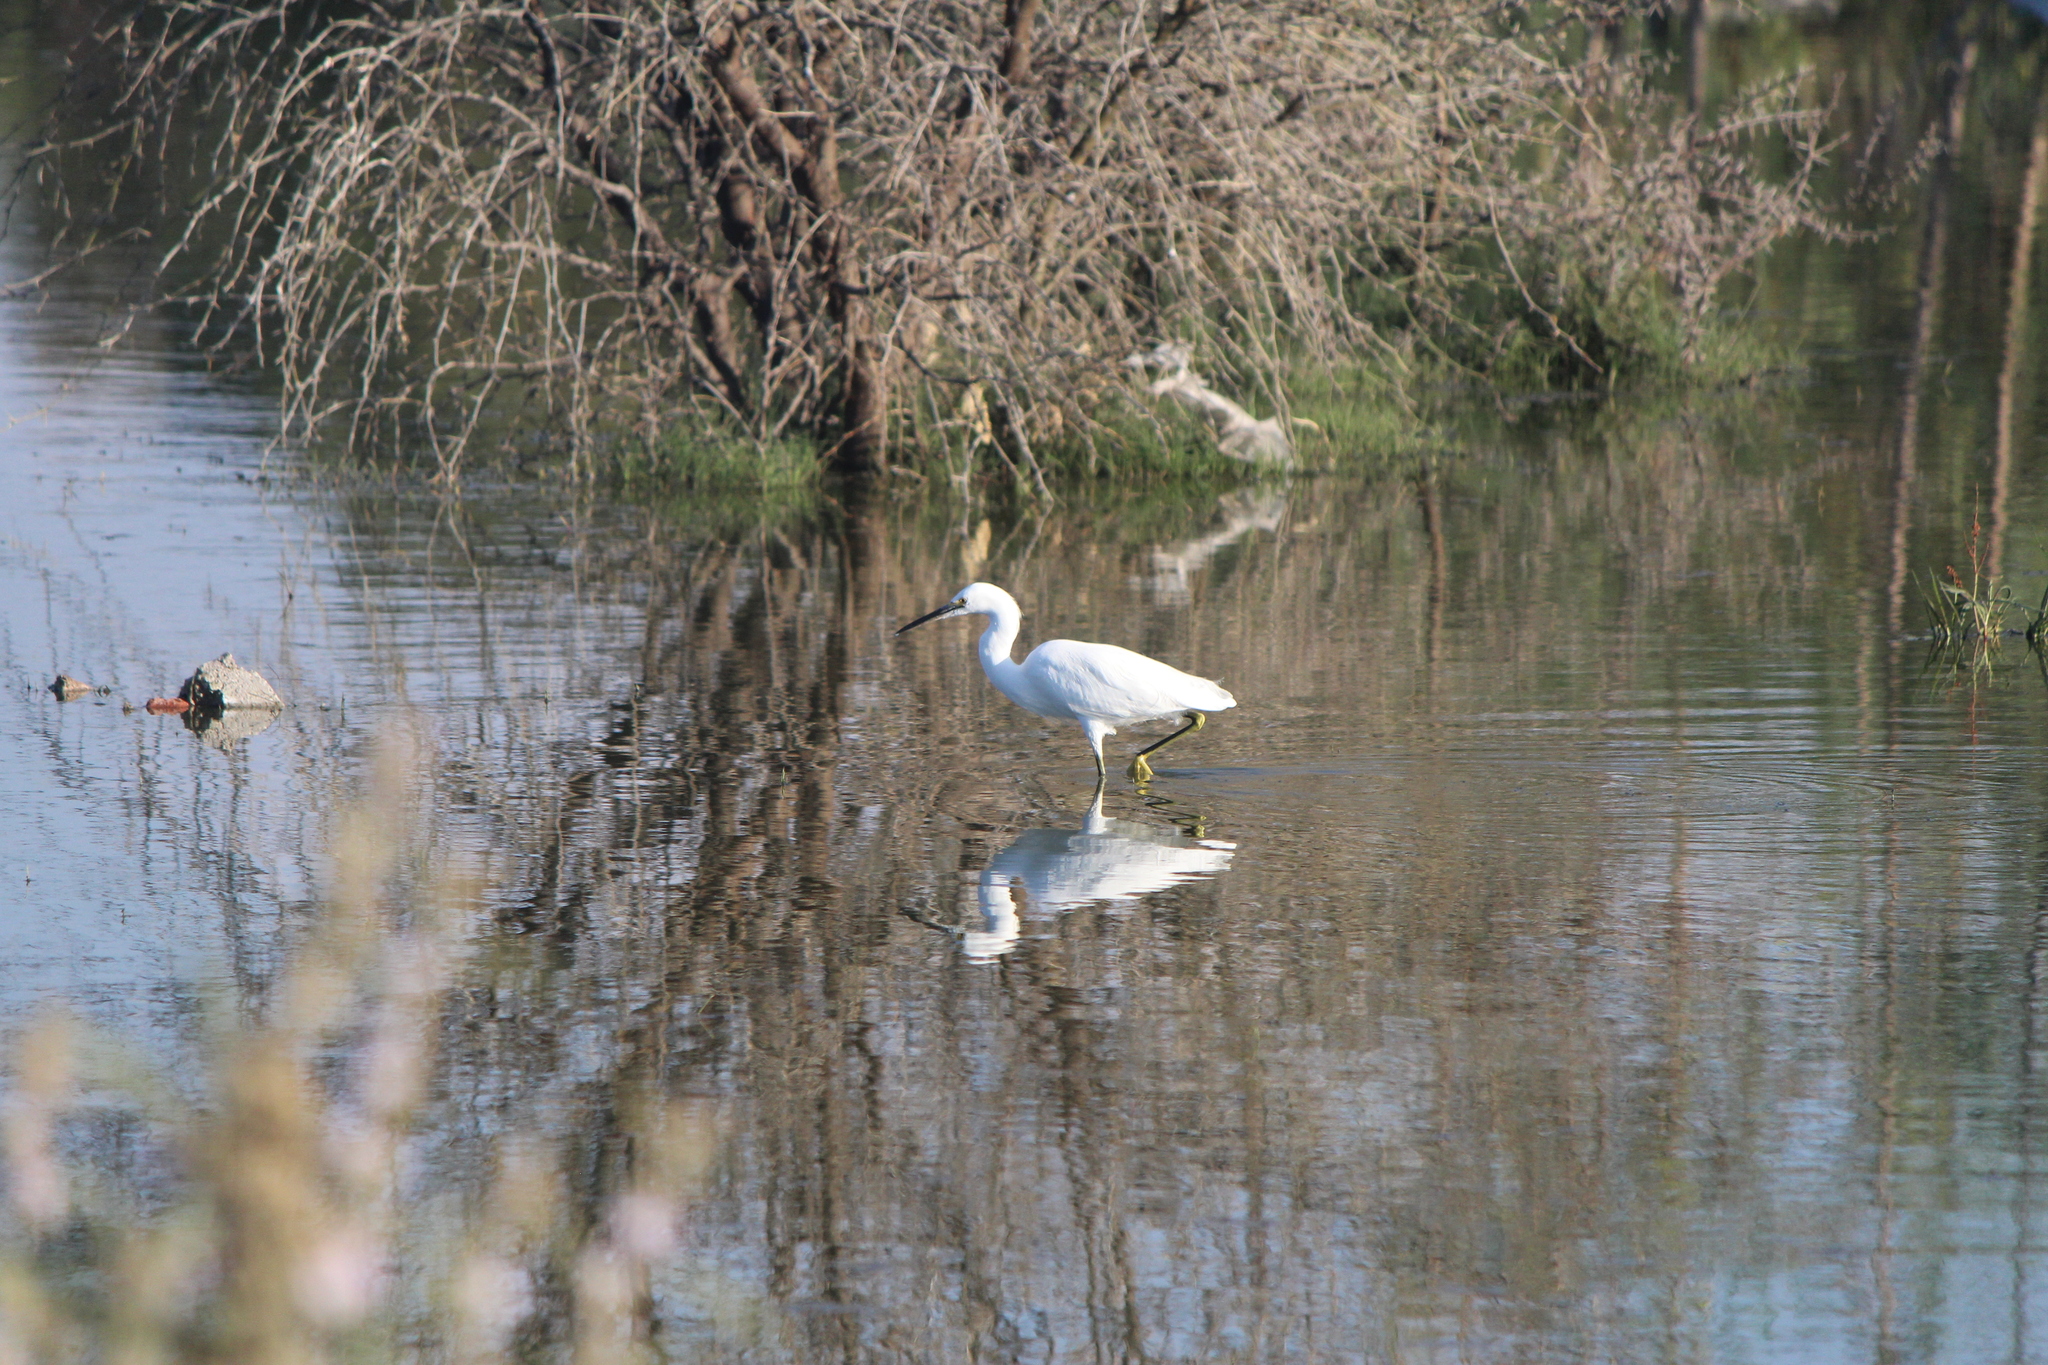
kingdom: Animalia
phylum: Chordata
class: Aves
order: Pelecaniformes
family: Ardeidae
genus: Egretta
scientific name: Egretta thula
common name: Snowy egret
